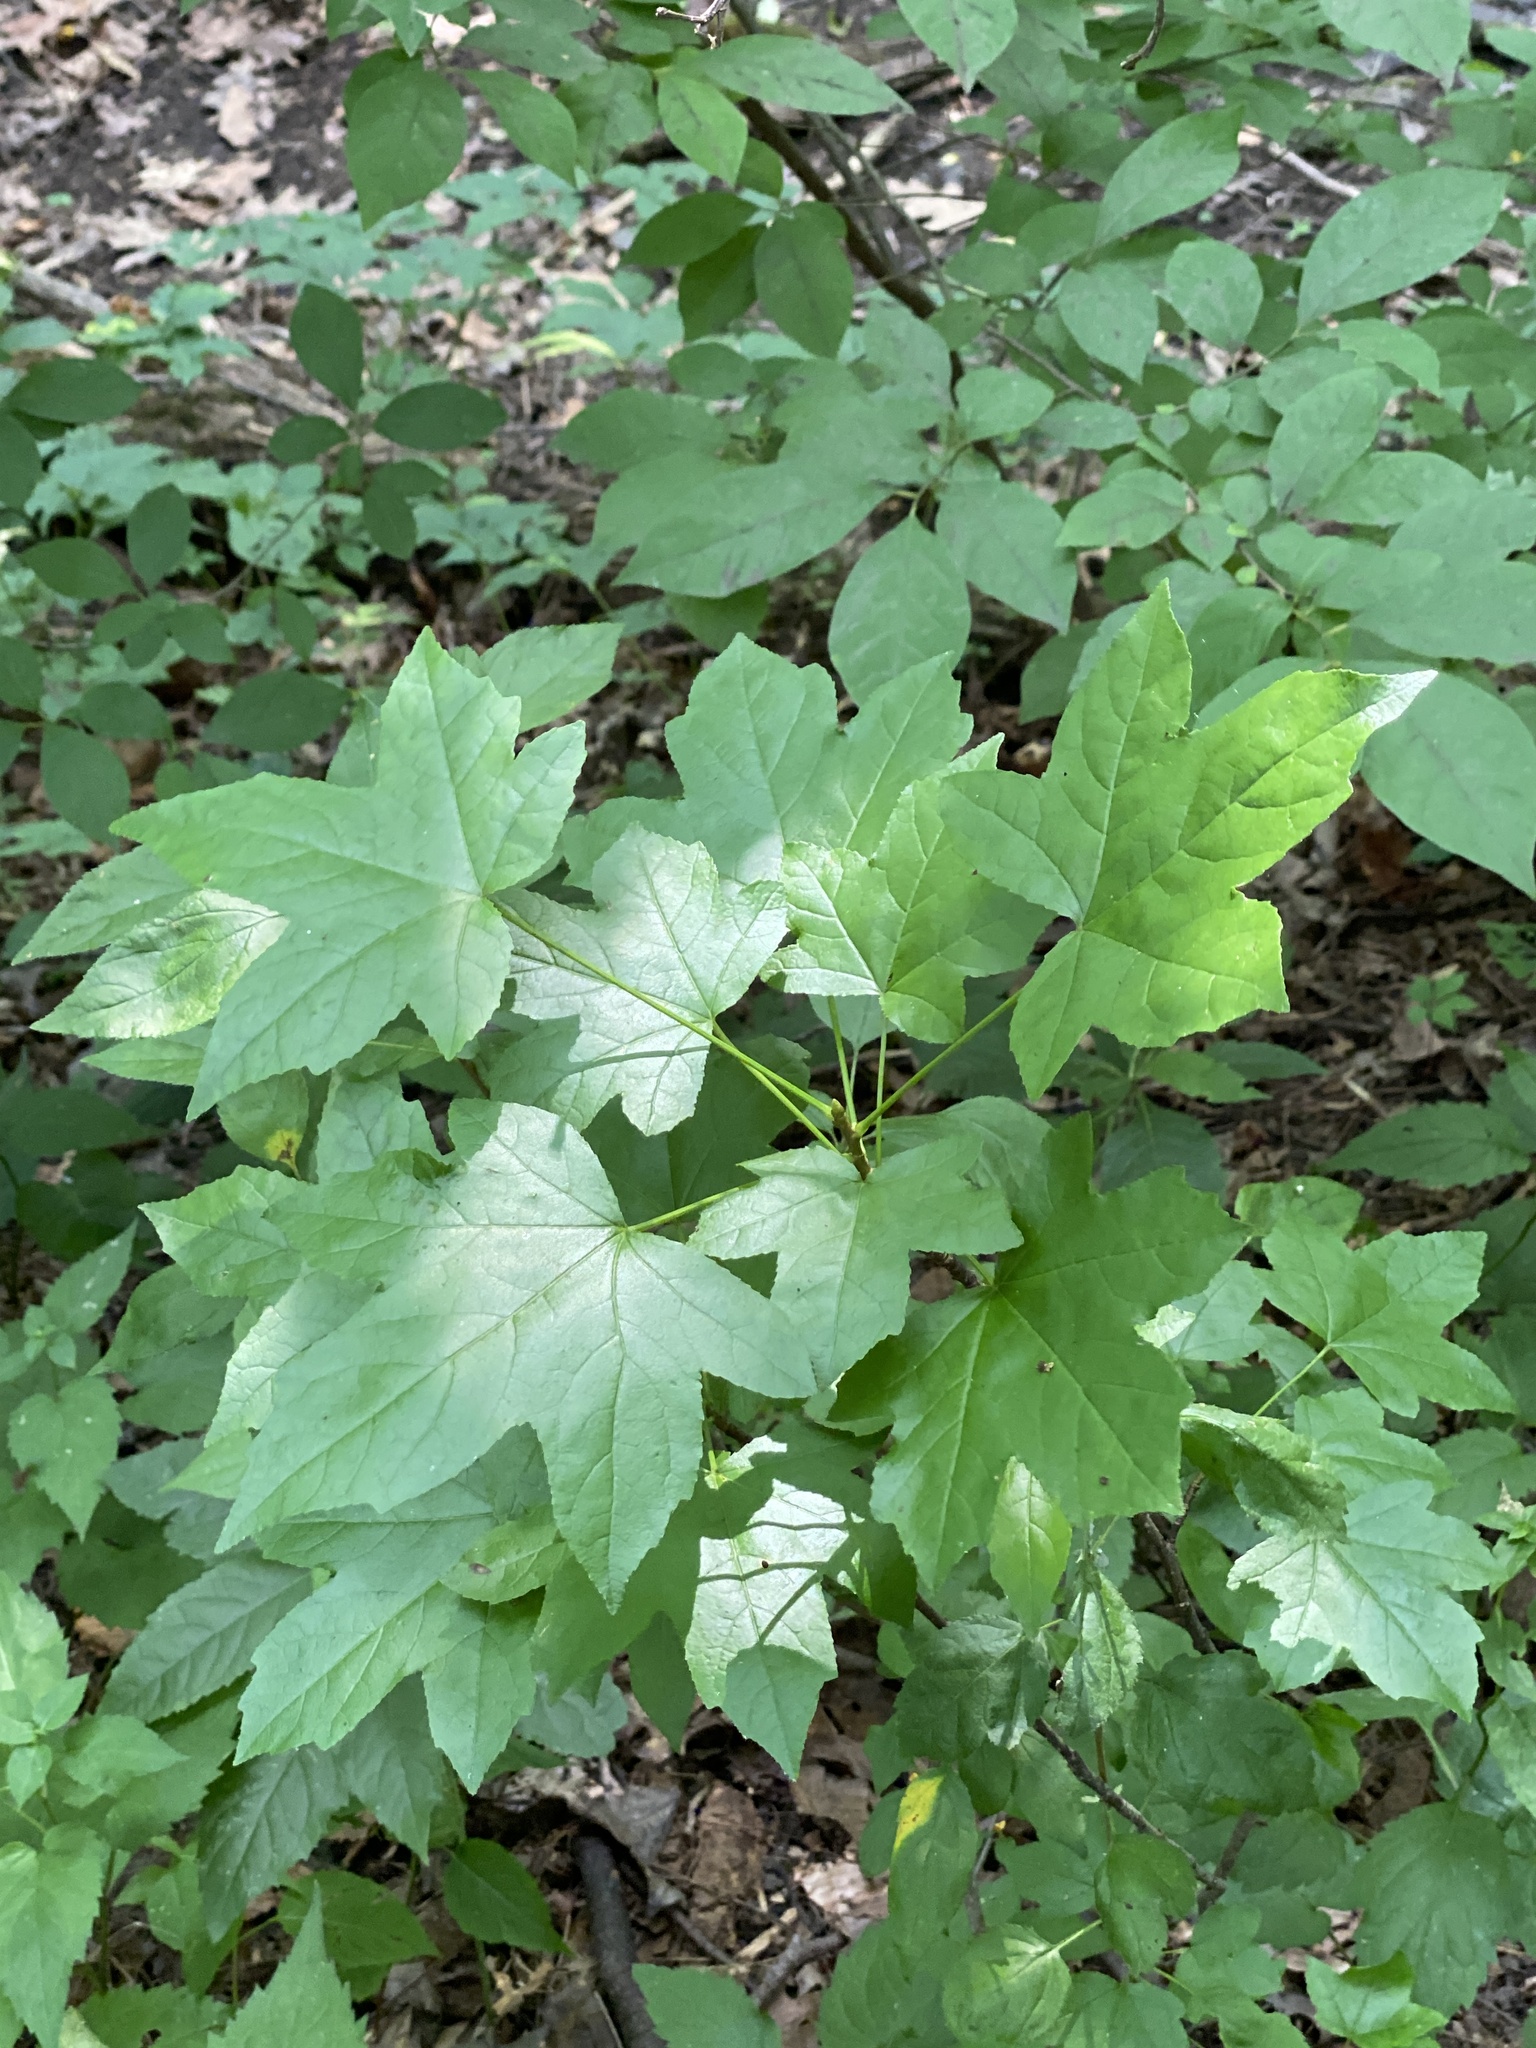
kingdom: Plantae
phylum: Tracheophyta
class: Magnoliopsida
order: Saxifragales
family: Altingiaceae
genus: Liquidambar
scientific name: Liquidambar styraciflua
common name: Sweet gum
